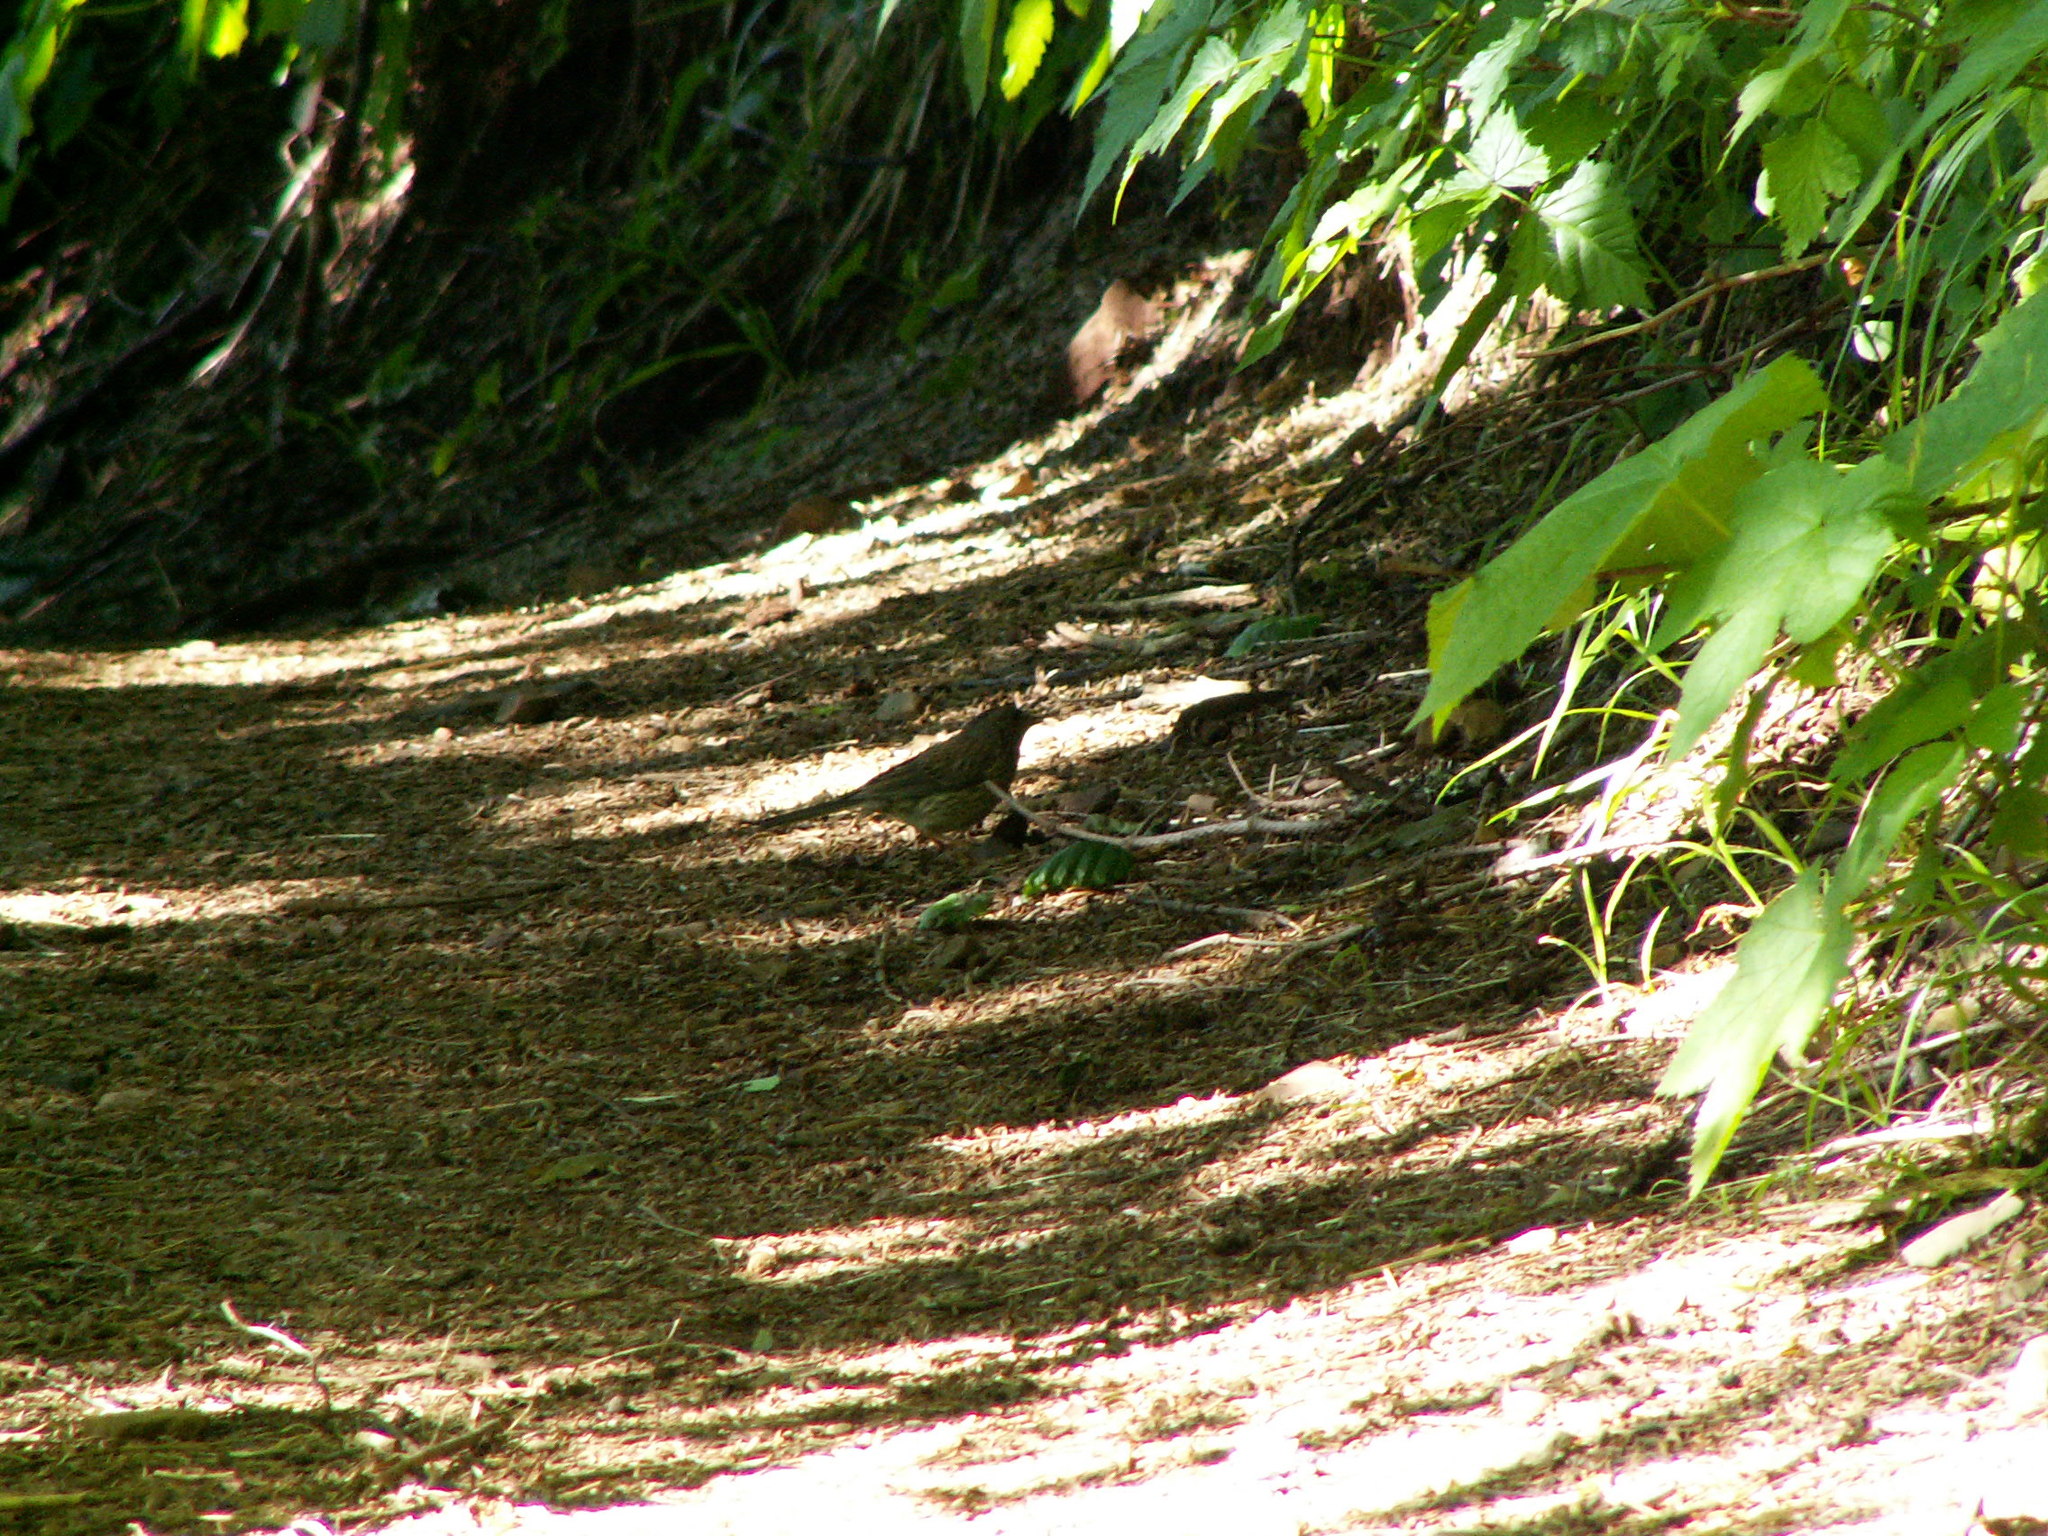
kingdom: Animalia
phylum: Chordata
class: Aves
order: Passeriformes
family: Passerellidae
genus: Junco
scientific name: Junco hyemalis
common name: Dark-eyed junco
